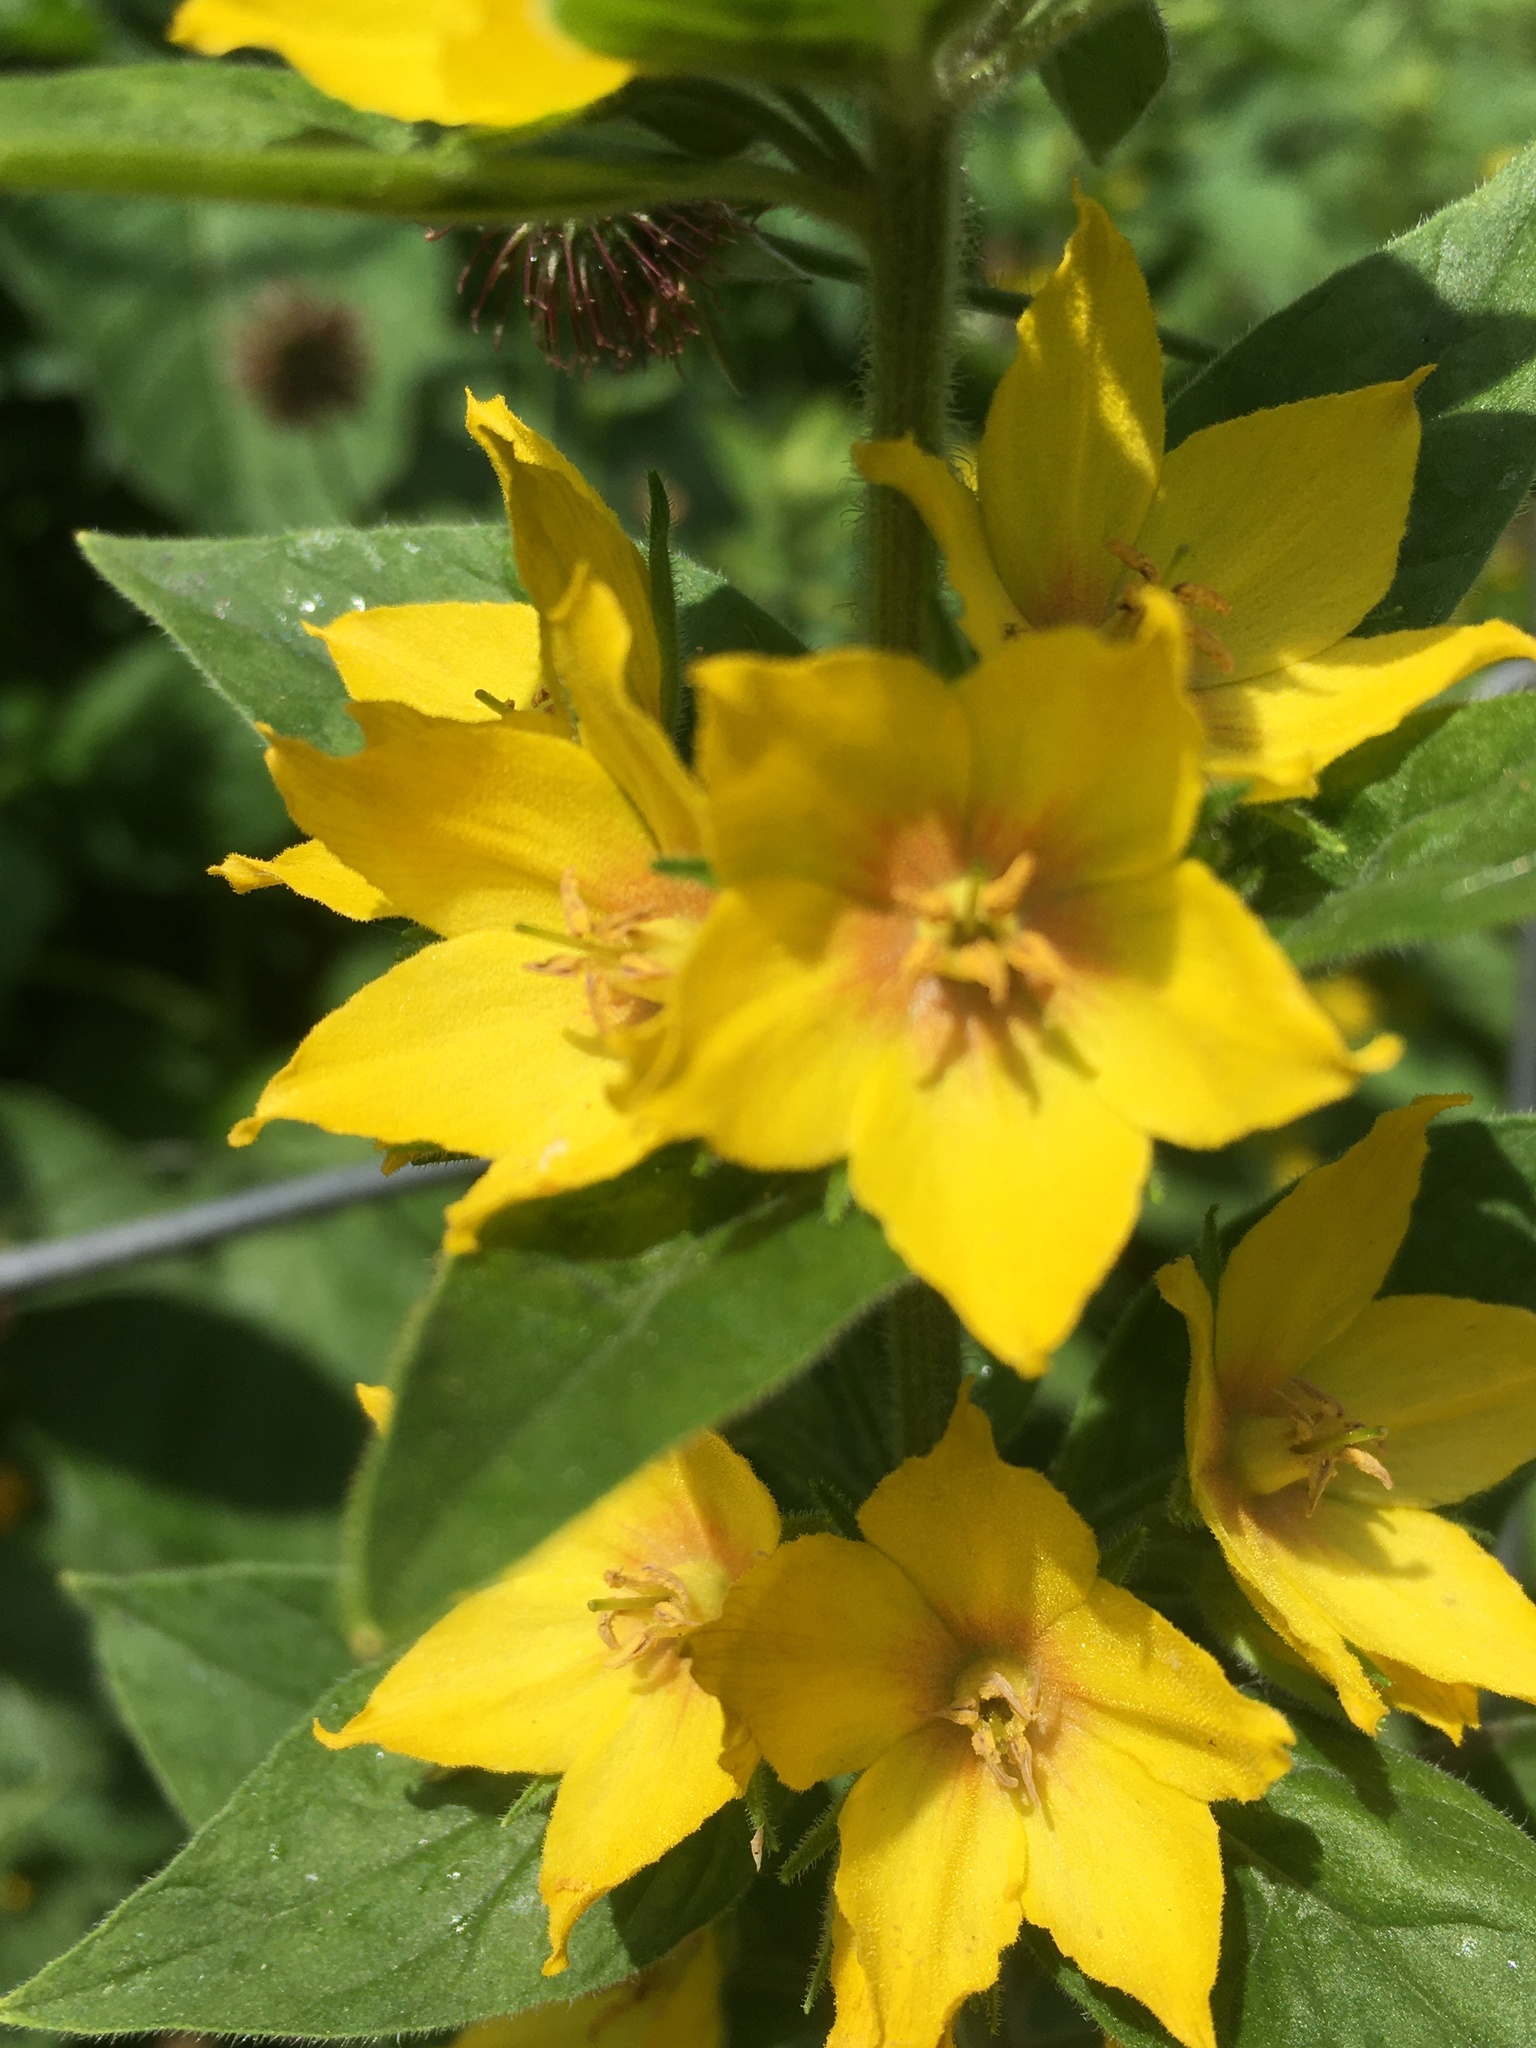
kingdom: Plantae
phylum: Tracheophyta
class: Magnoliopsida
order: Ericales
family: Primulaceae
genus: Lysimachia
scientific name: Lysimachia punctata
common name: Dotted loosestrife
